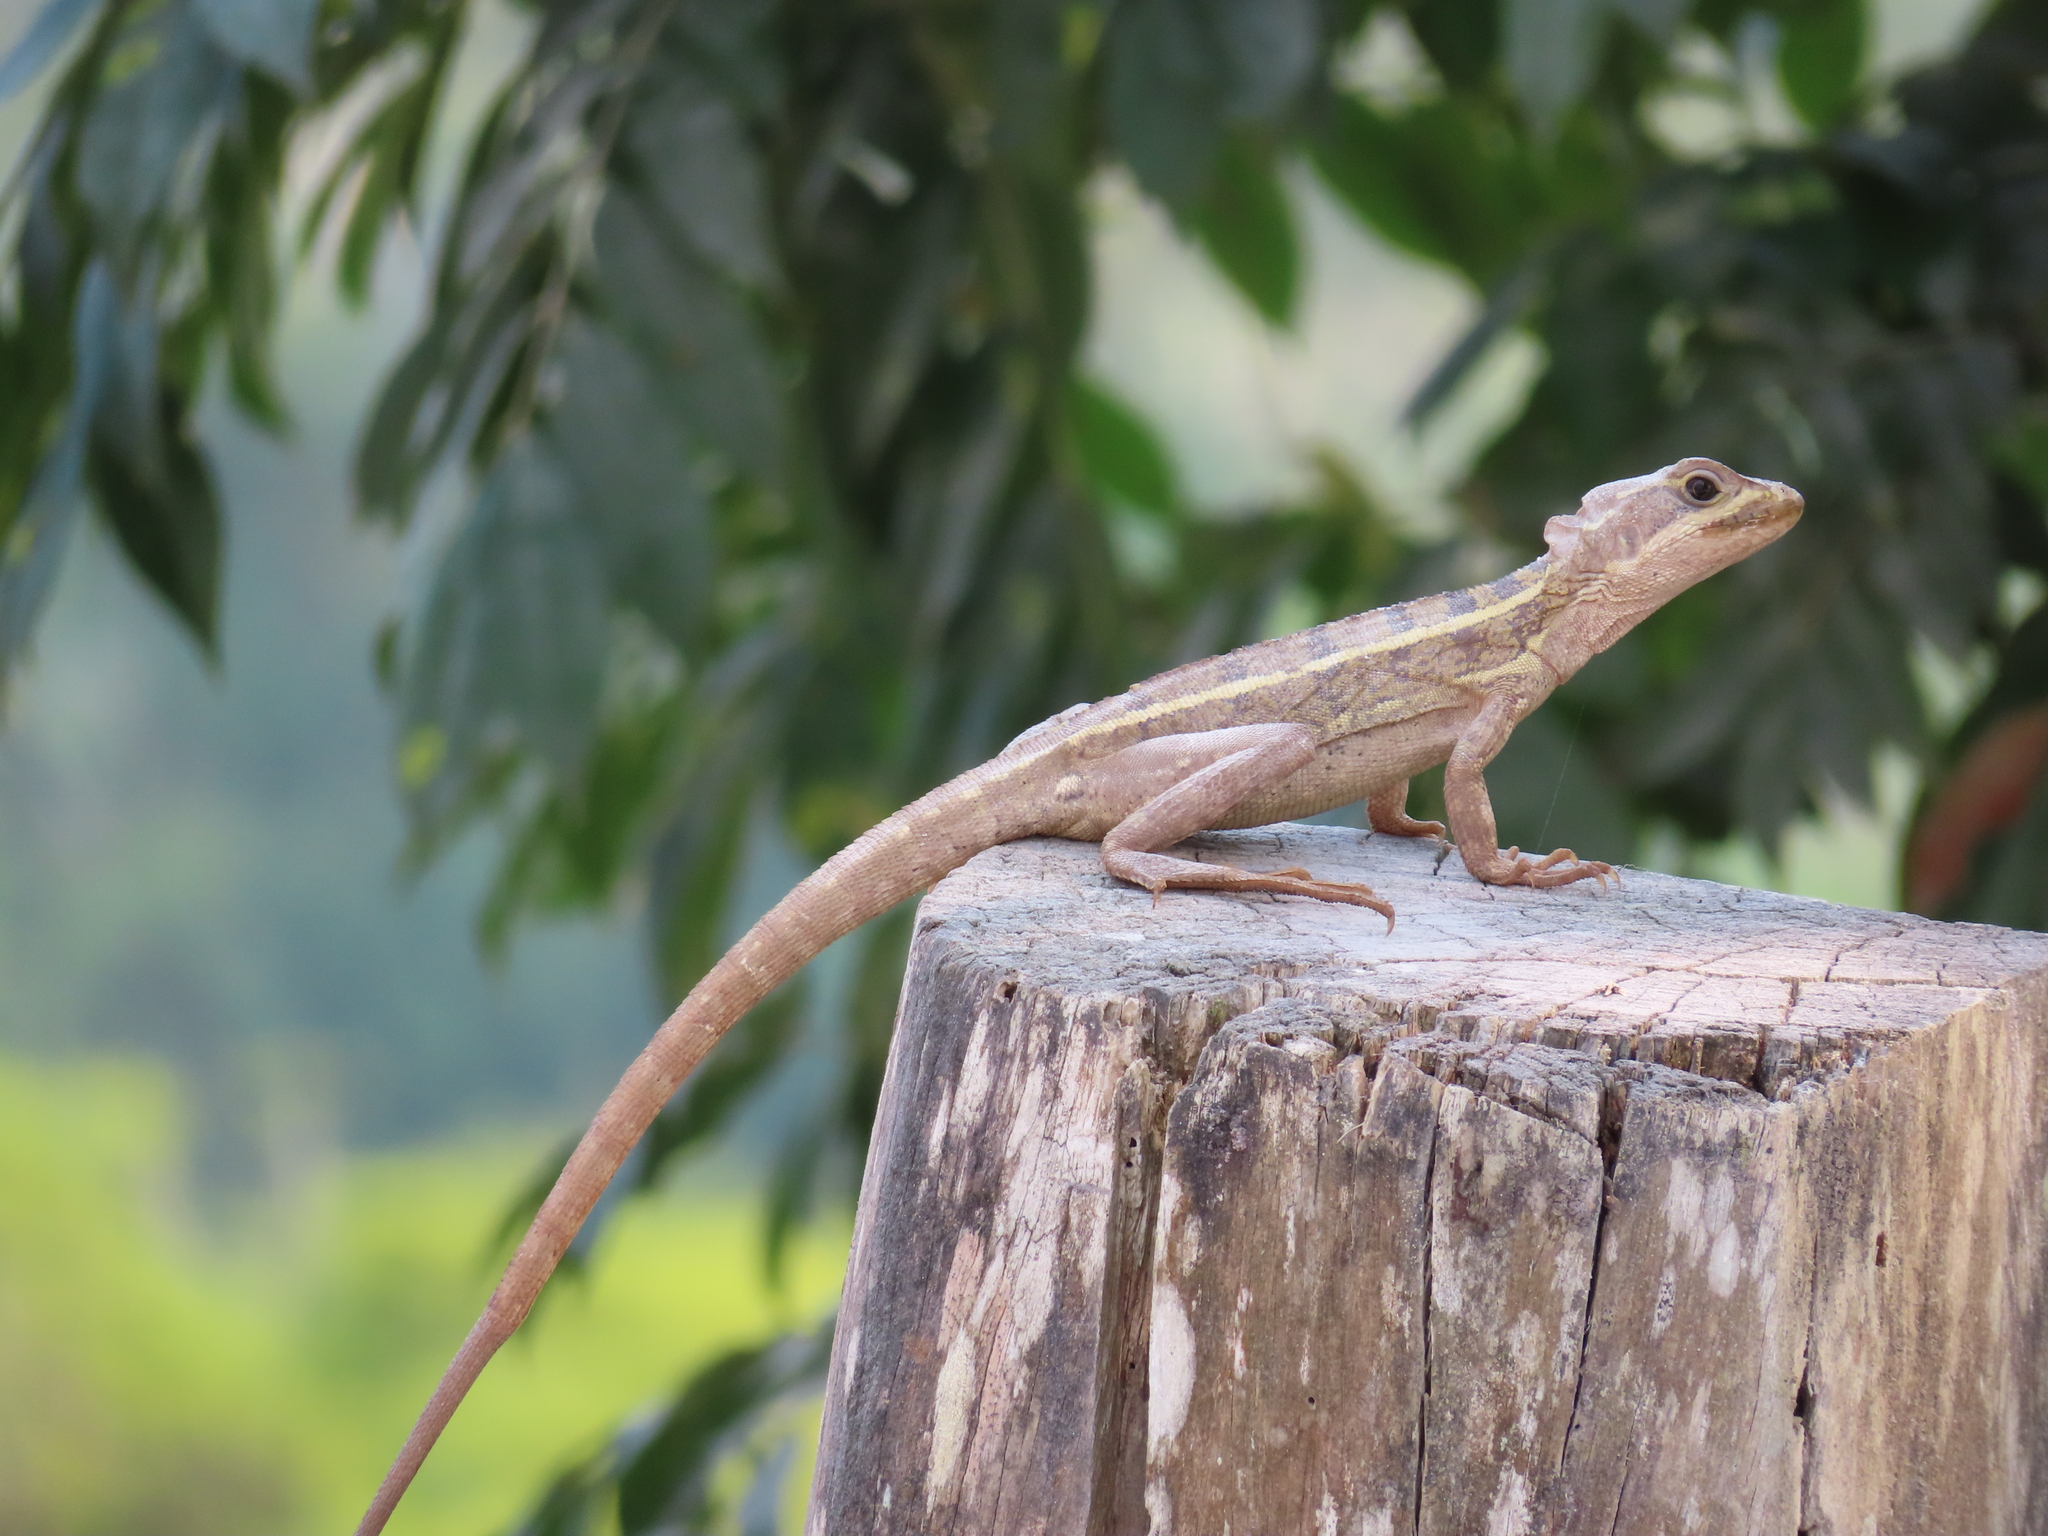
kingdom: Animalia
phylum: Chordata
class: Squamata
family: Corytophanidae
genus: Basiliscus
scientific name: Basiliscus vittatus
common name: Brown basilisk
